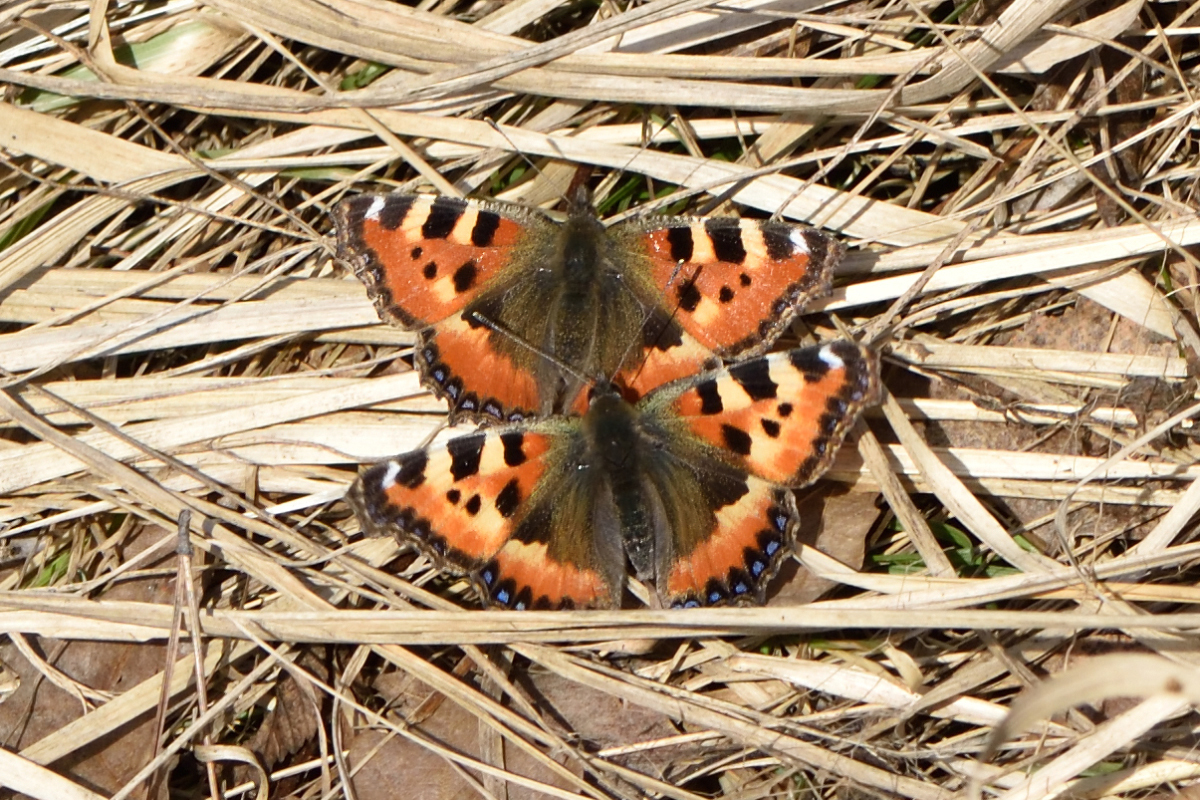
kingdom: Animalia
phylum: Arthropoda
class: Insecta
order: Lepidoptera
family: Nymphalidae
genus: Aglais
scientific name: Aglais urticae
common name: Small tortoiseshell
